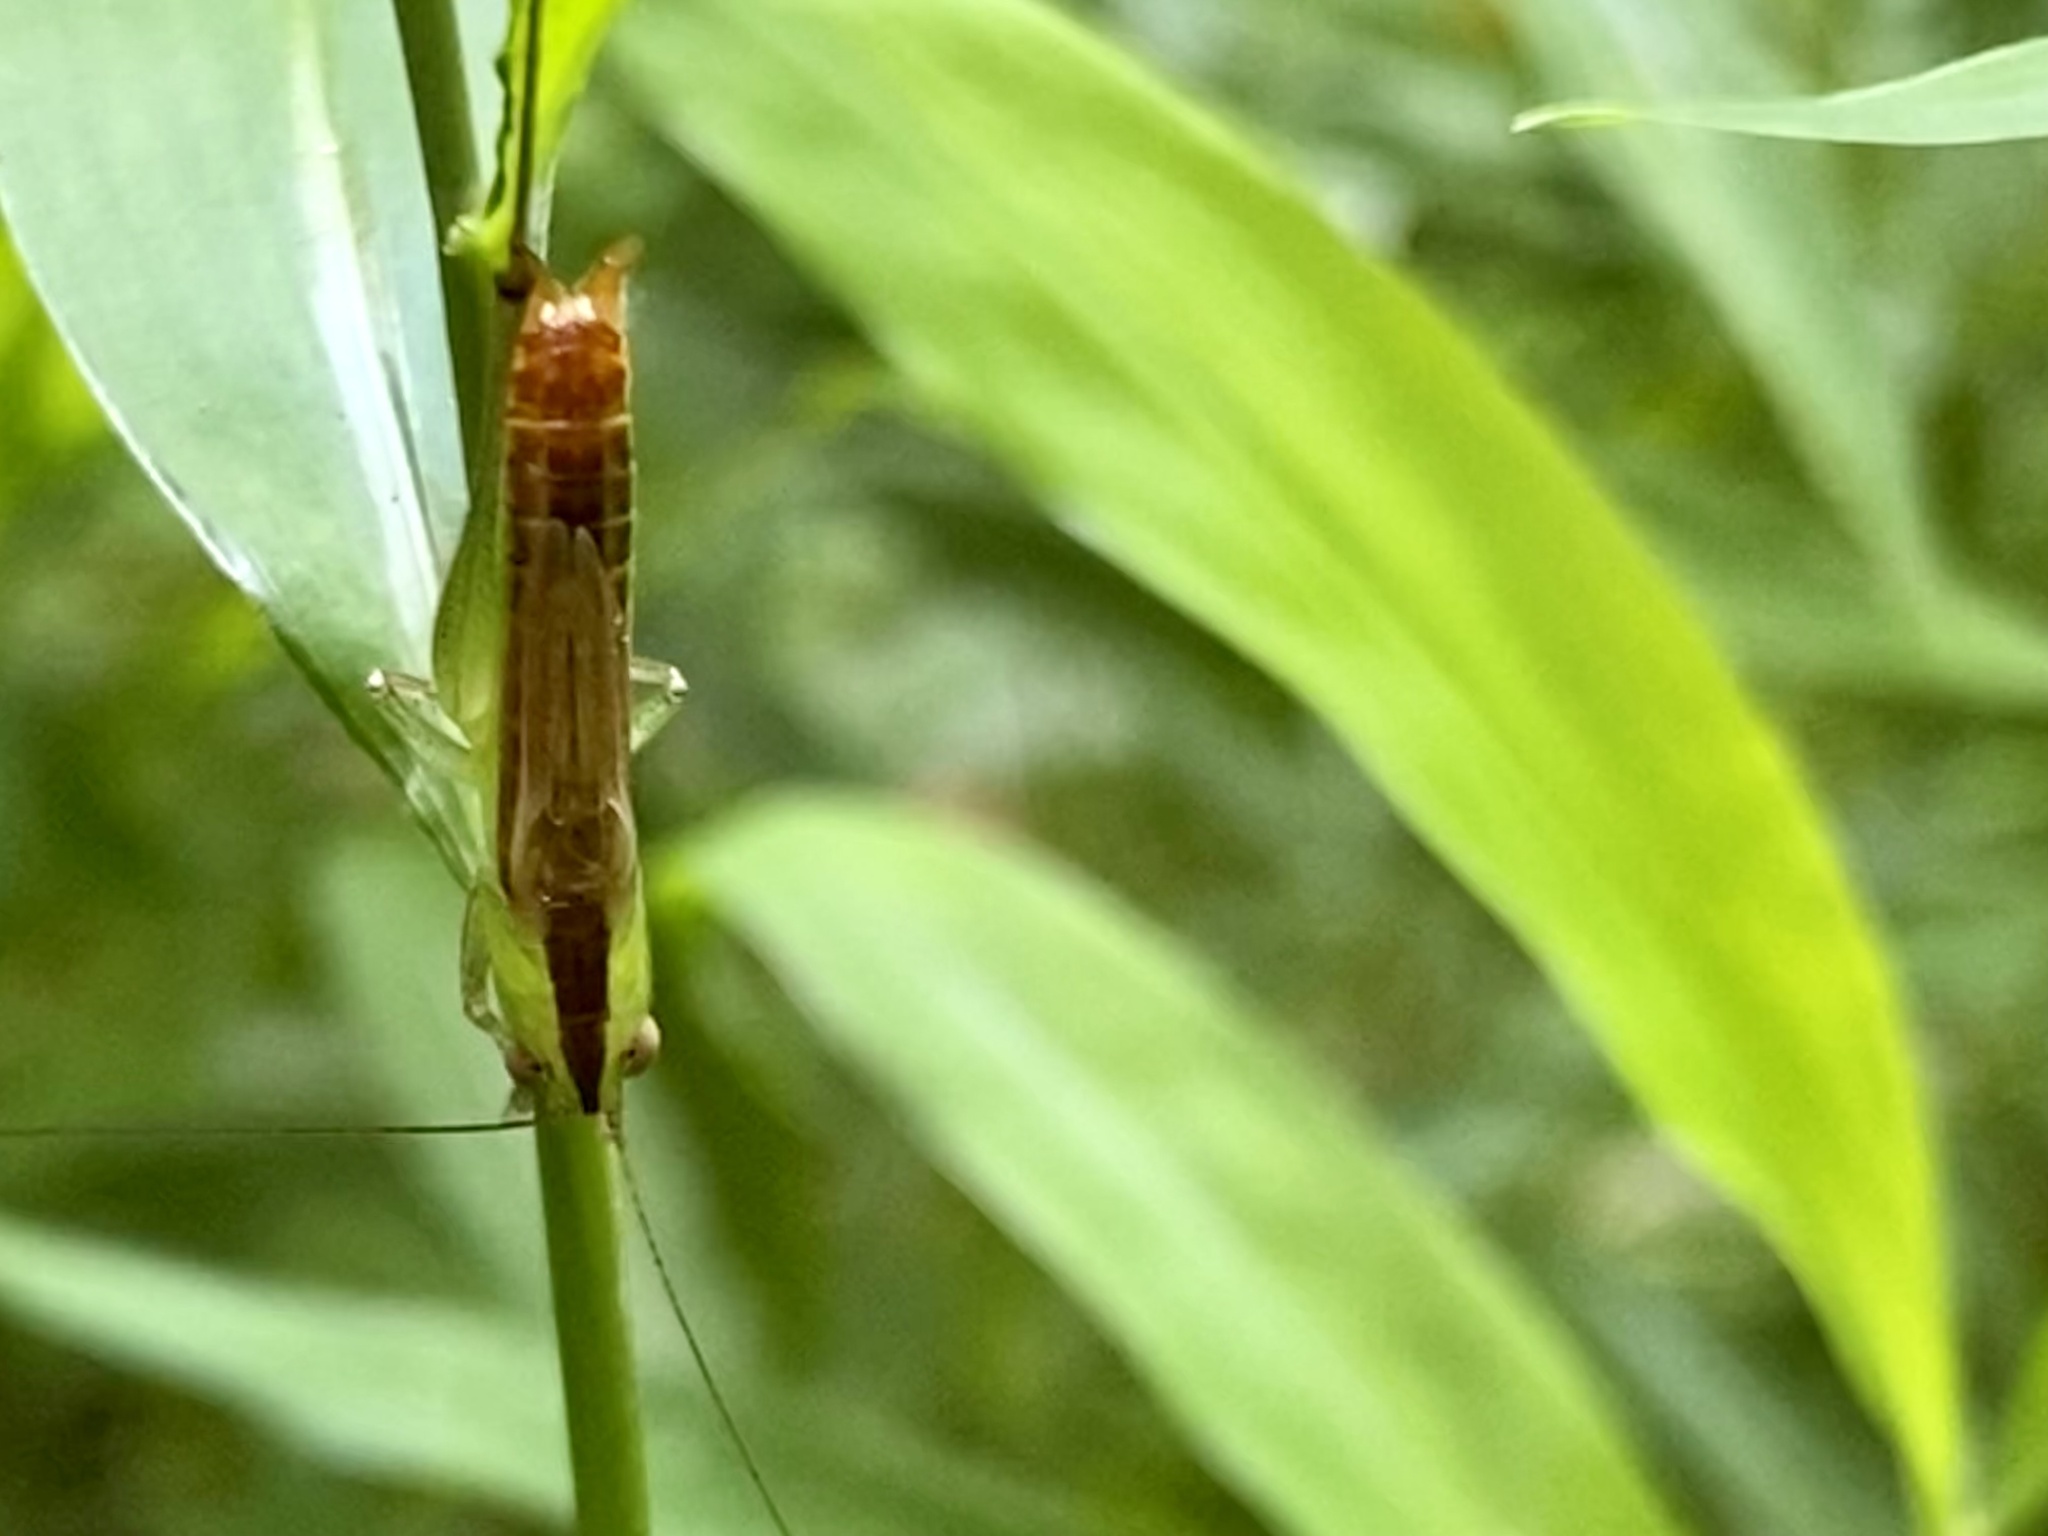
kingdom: Animalia
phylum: Arthropoda
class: Insecta
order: Orthoptera
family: Tettigoniidae
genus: Conocephalus
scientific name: Conocephalus brevipennis
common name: Short-winged meadow katydid
